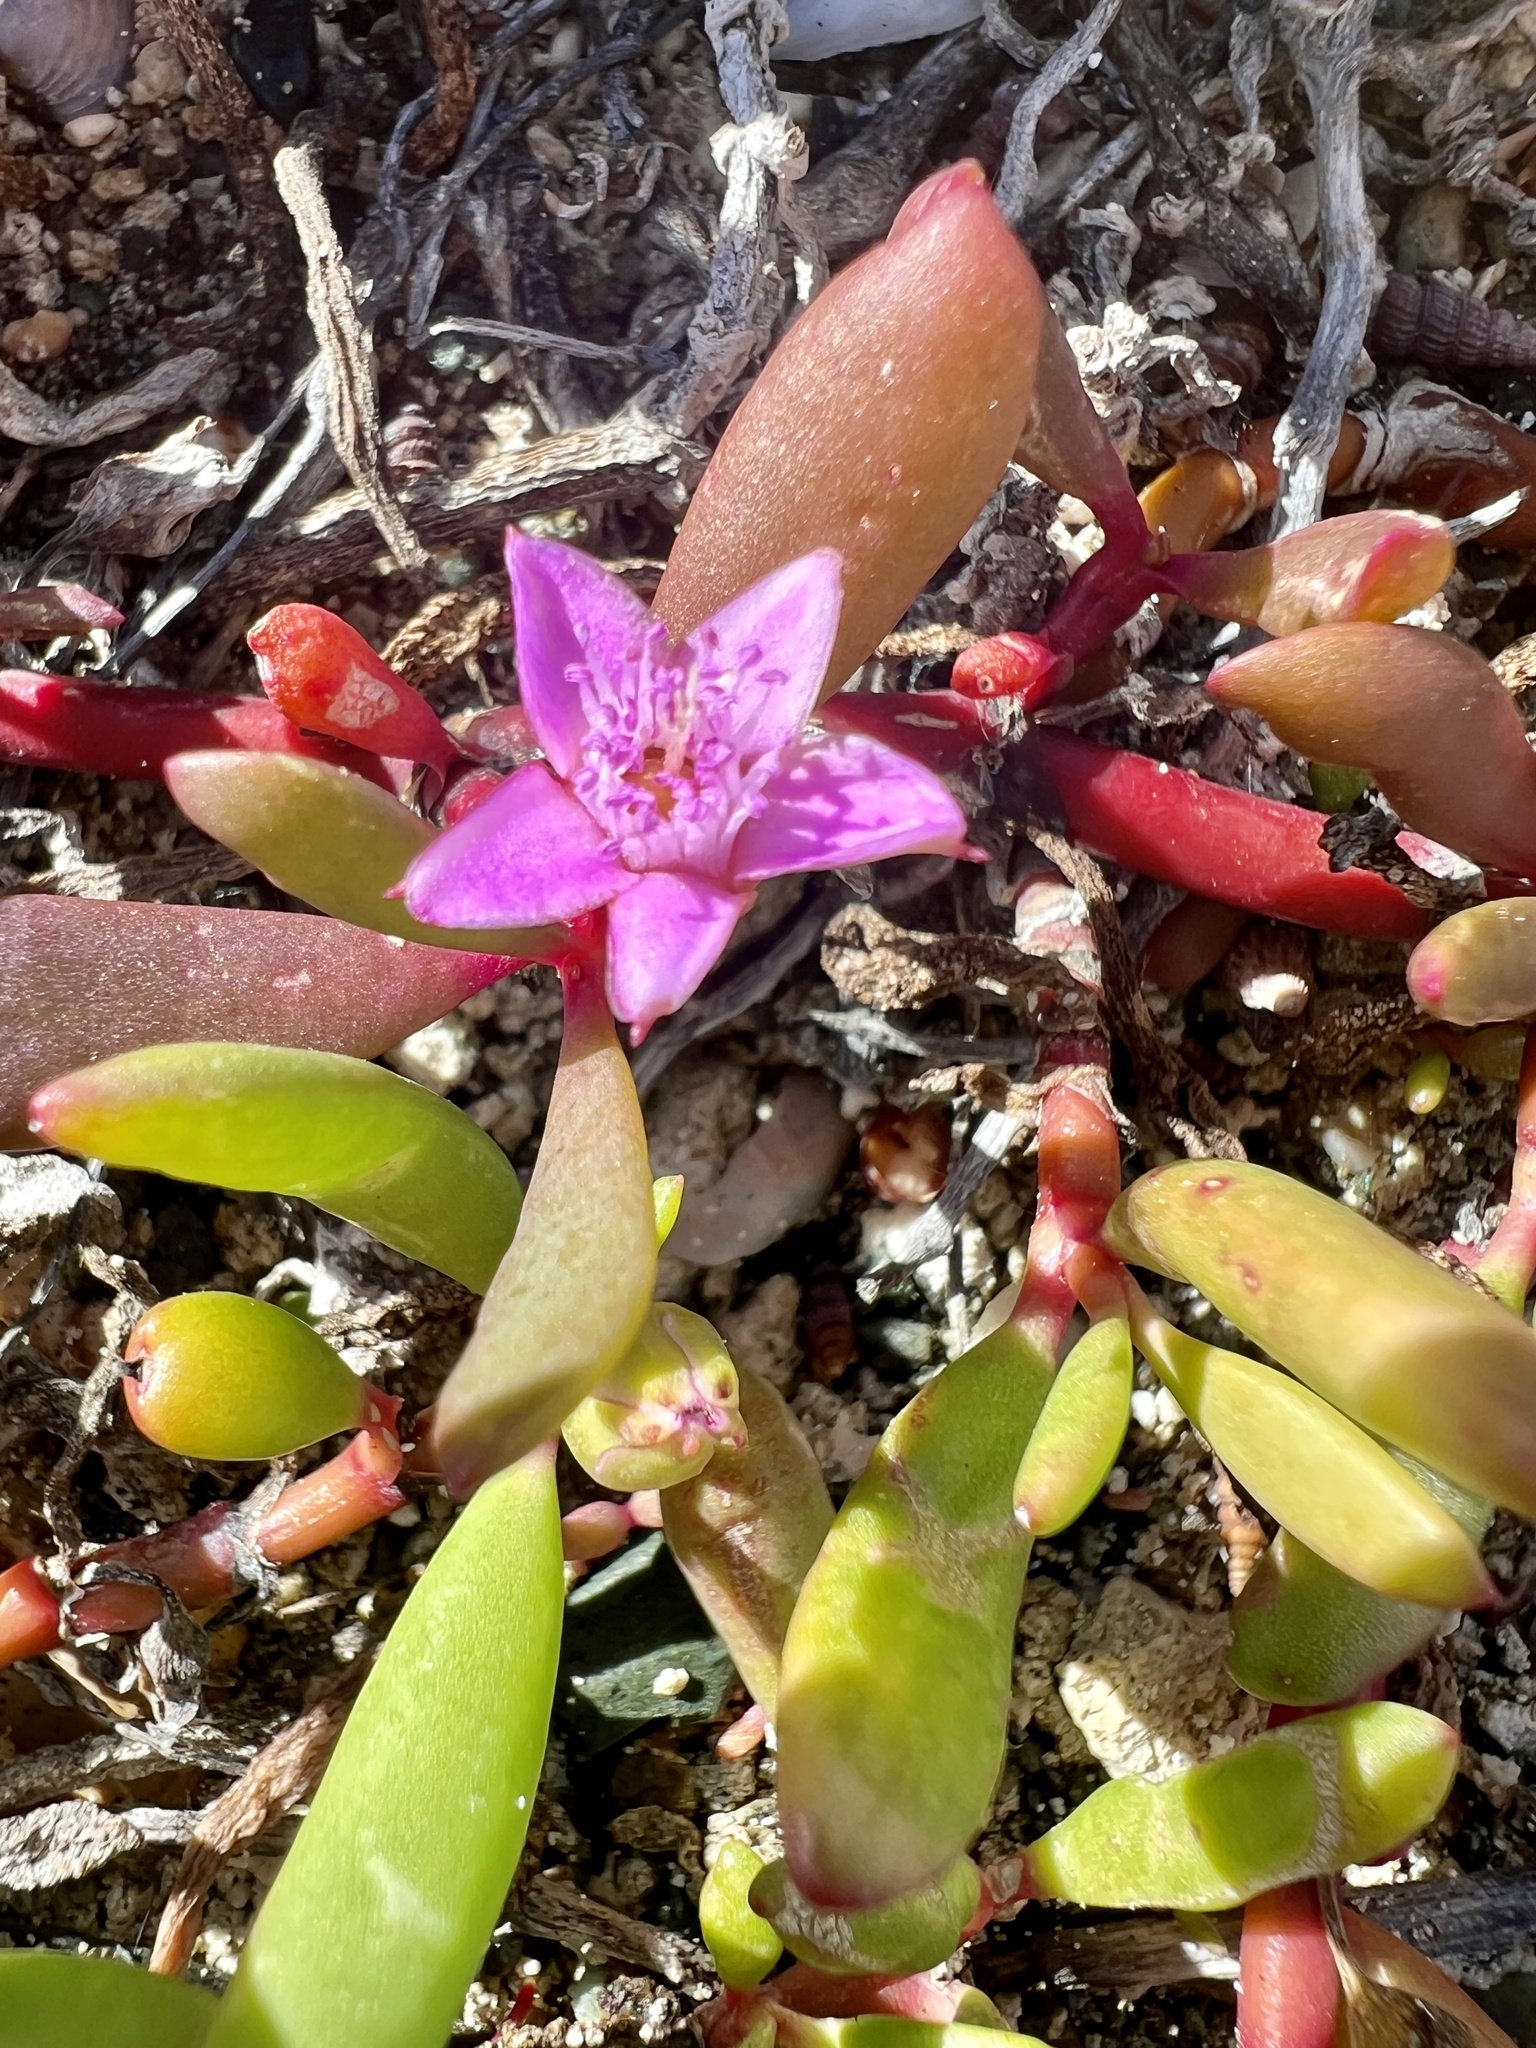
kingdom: Plantae
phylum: Tracheophyta
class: Magnoliopsida
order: Caryophyllales
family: Aizoaceae
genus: Sesuvium
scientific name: Sesuvium portulacastrum
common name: Sea-purslane
